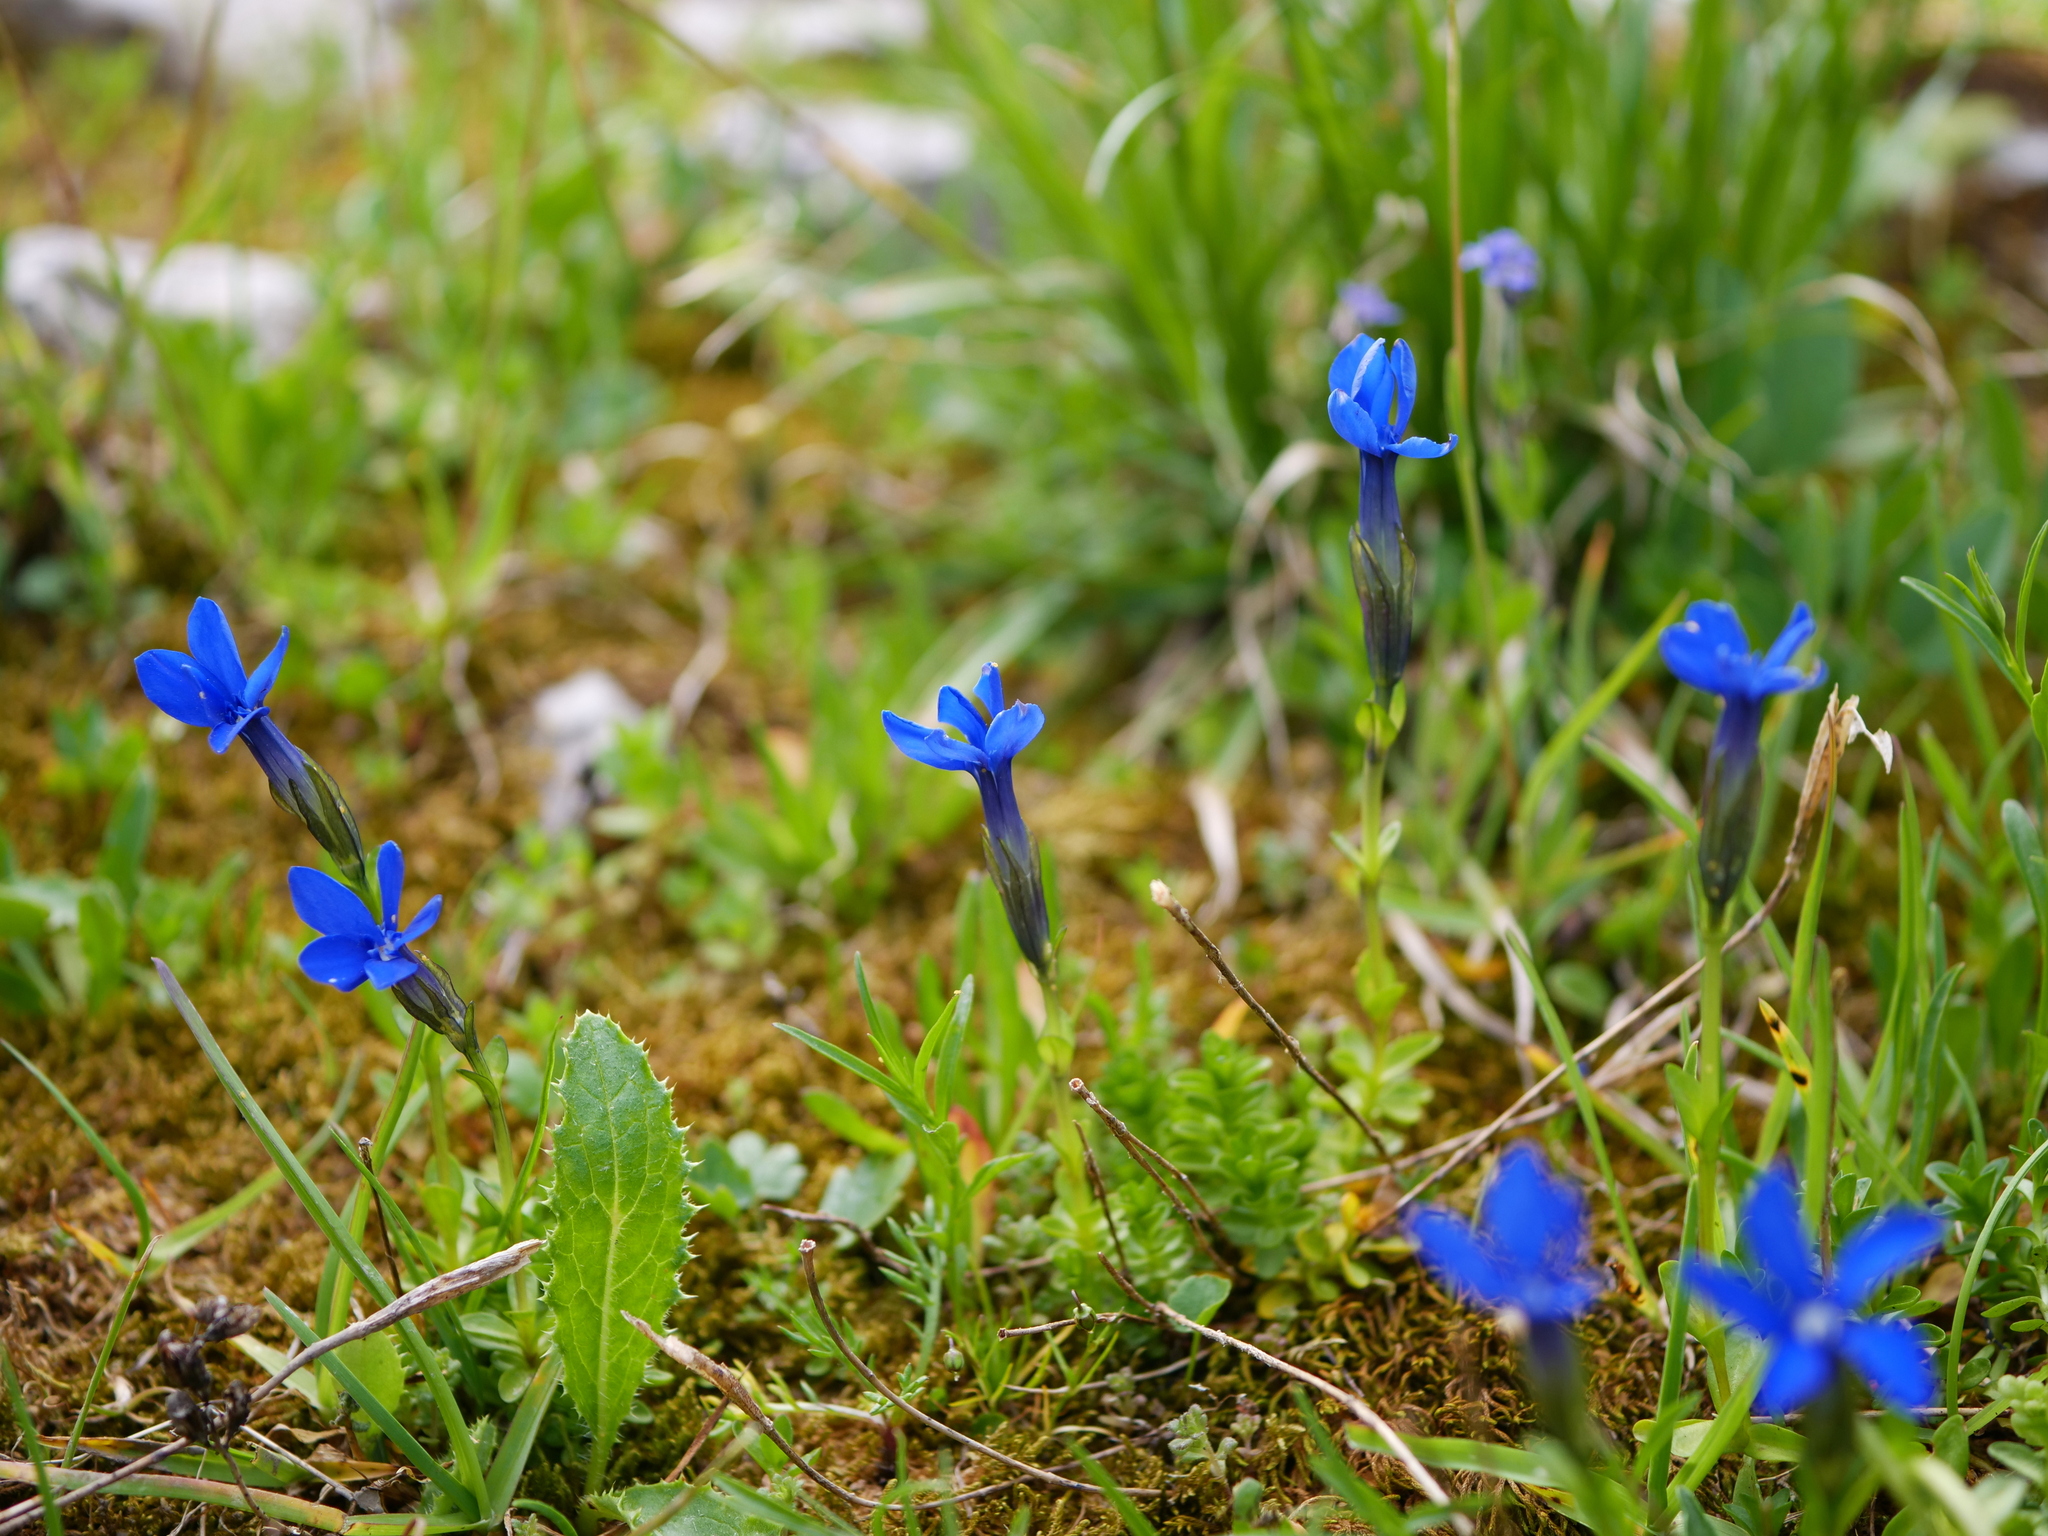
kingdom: Plantae
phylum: Tracheophyta
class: Magnoliopsida
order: Gentianales
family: Gentianaceae
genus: Gentiana
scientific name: Gentiana bavarica
